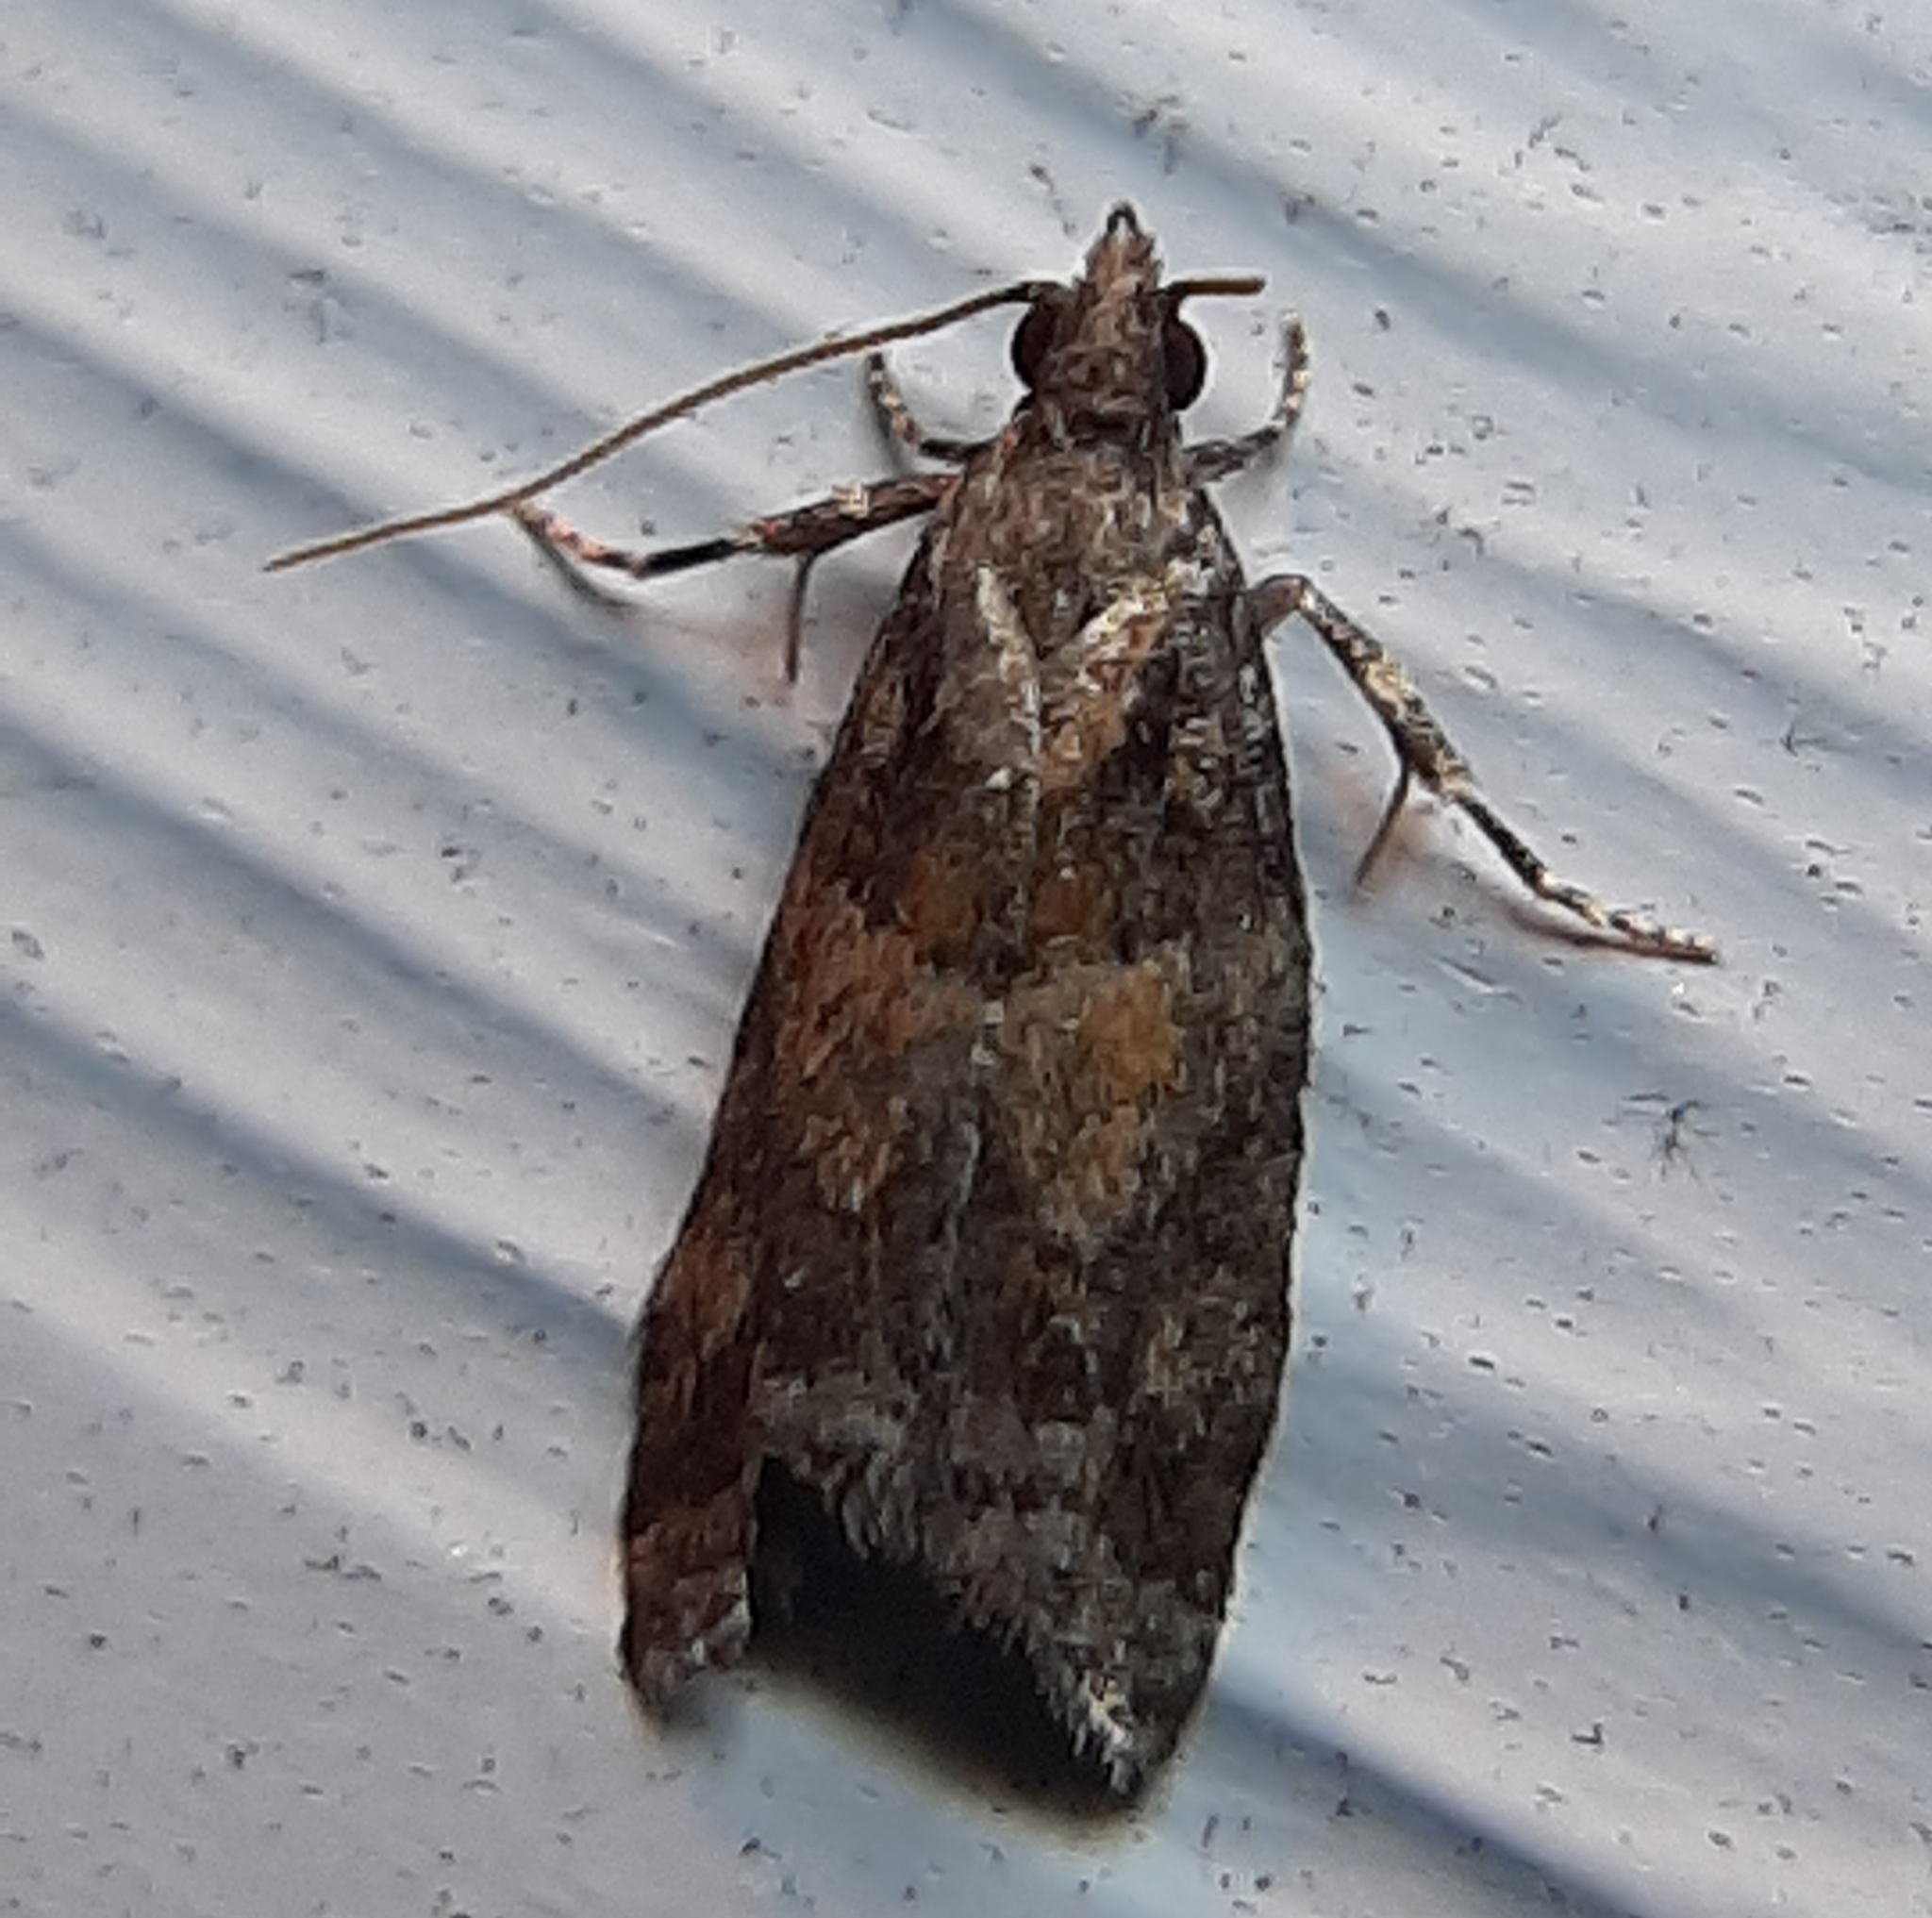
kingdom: Animalia
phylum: Arthropoda
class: Insecta
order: Lepidoptera
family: Tortricidae
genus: Epinotia
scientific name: Epinotia radicana
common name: Red-striped needleworm moth
